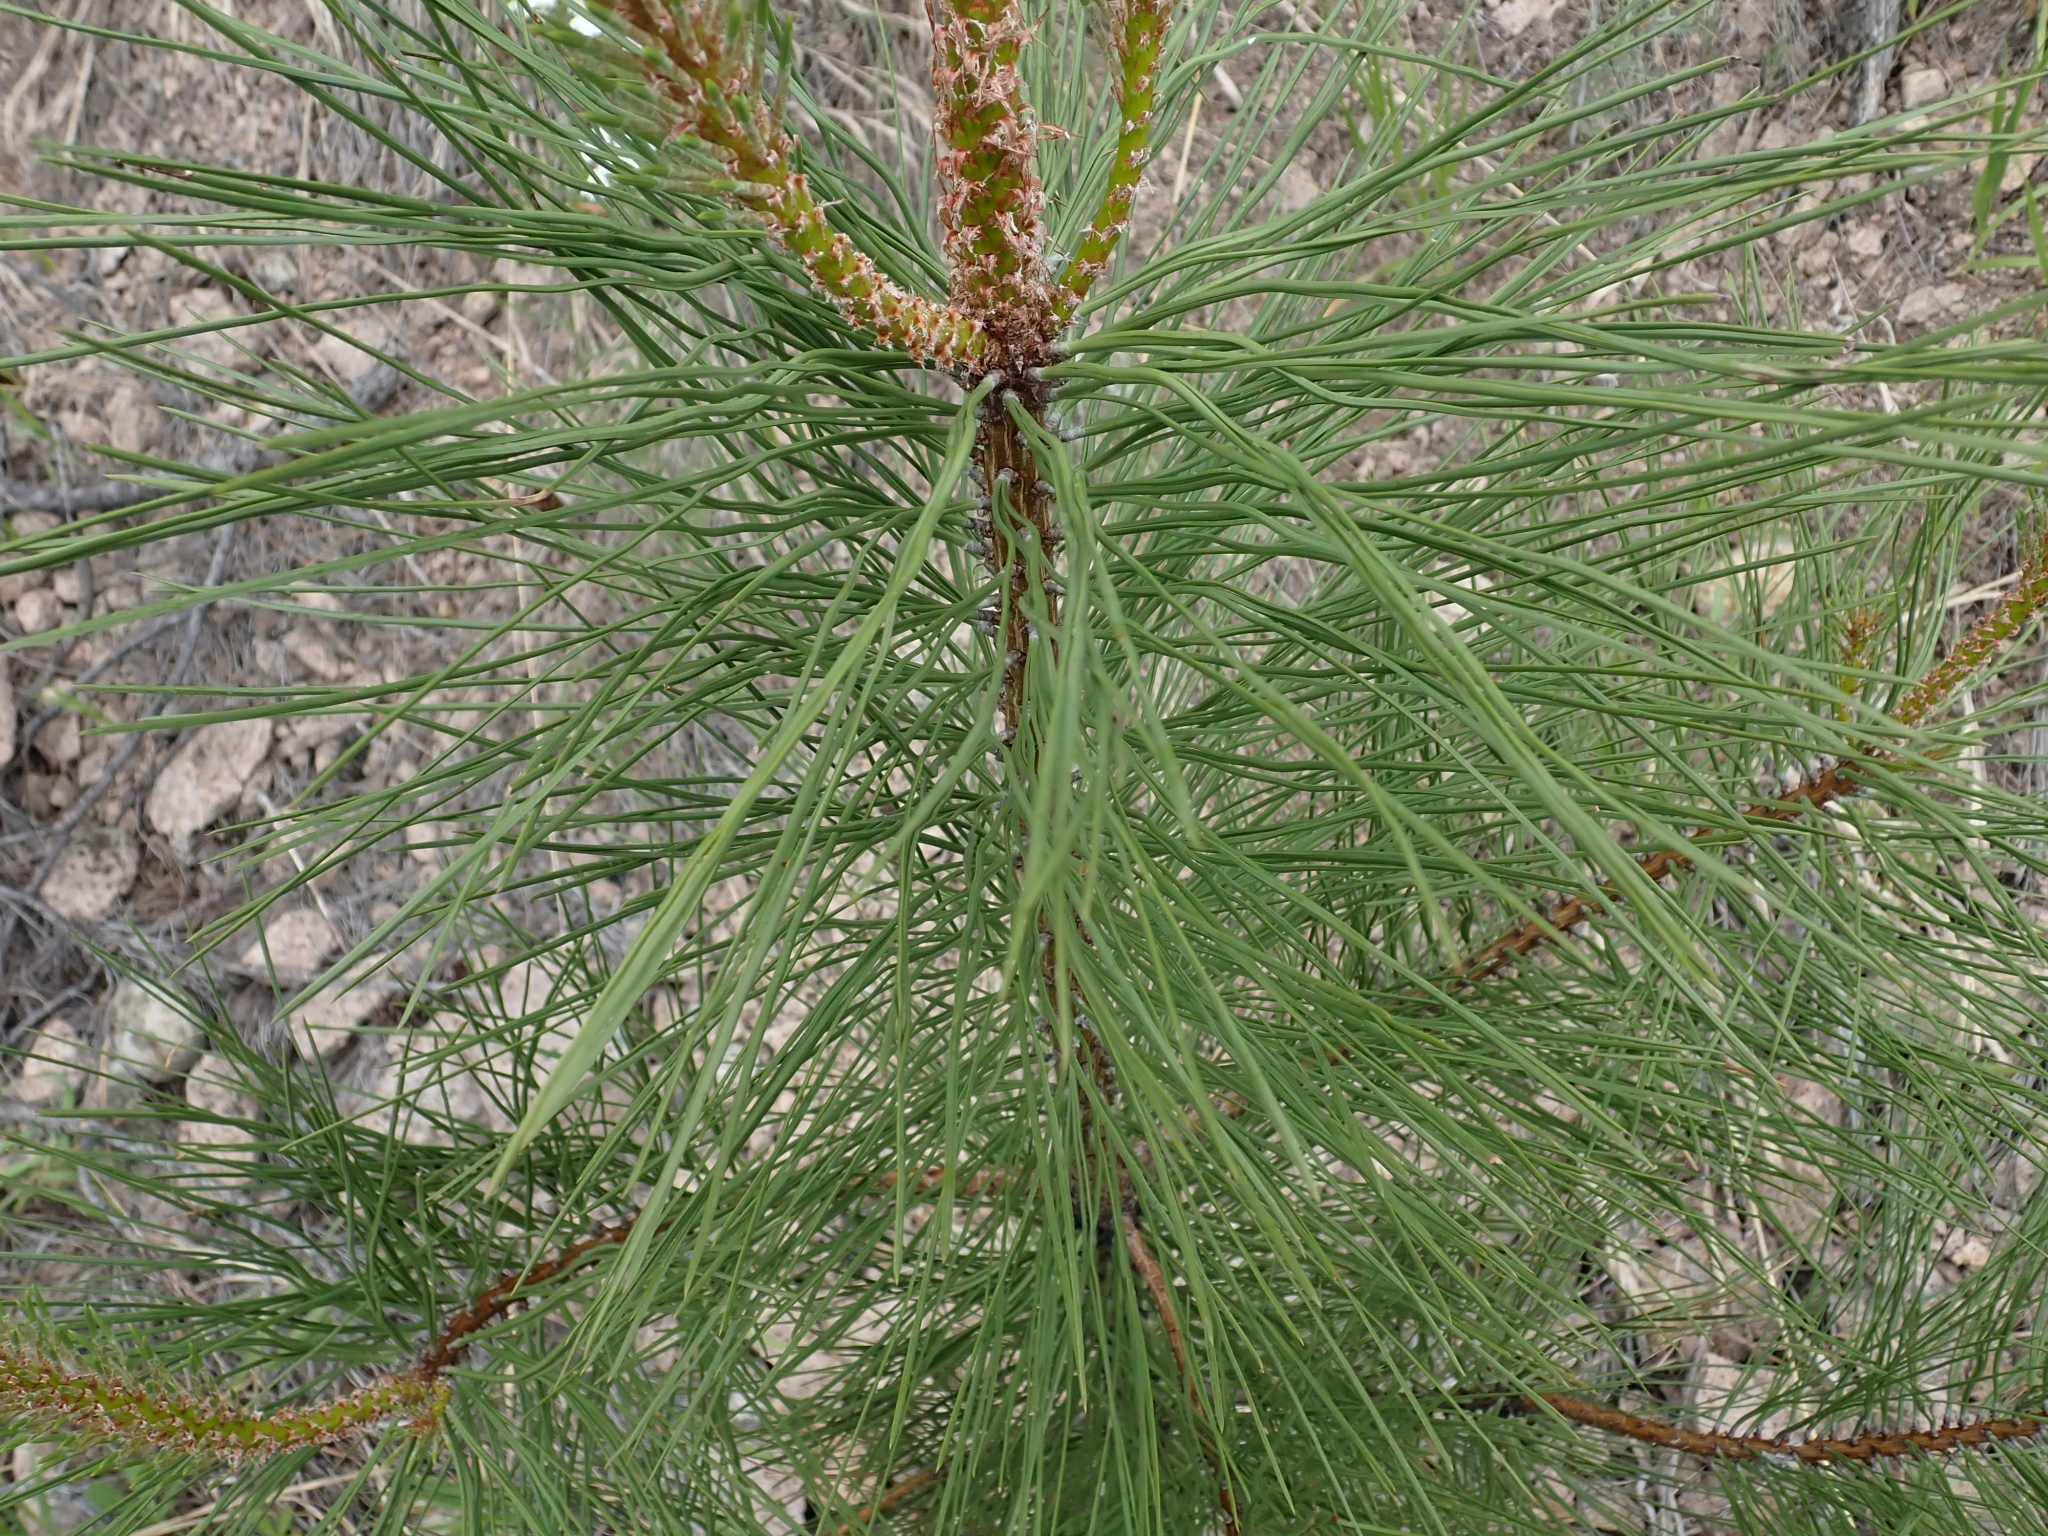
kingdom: Plantae
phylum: Tracheophyta
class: Pinopsida
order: Pinales
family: Pinaceae
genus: Pinus
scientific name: Pinus ponderosa
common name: Western yellow-pine
